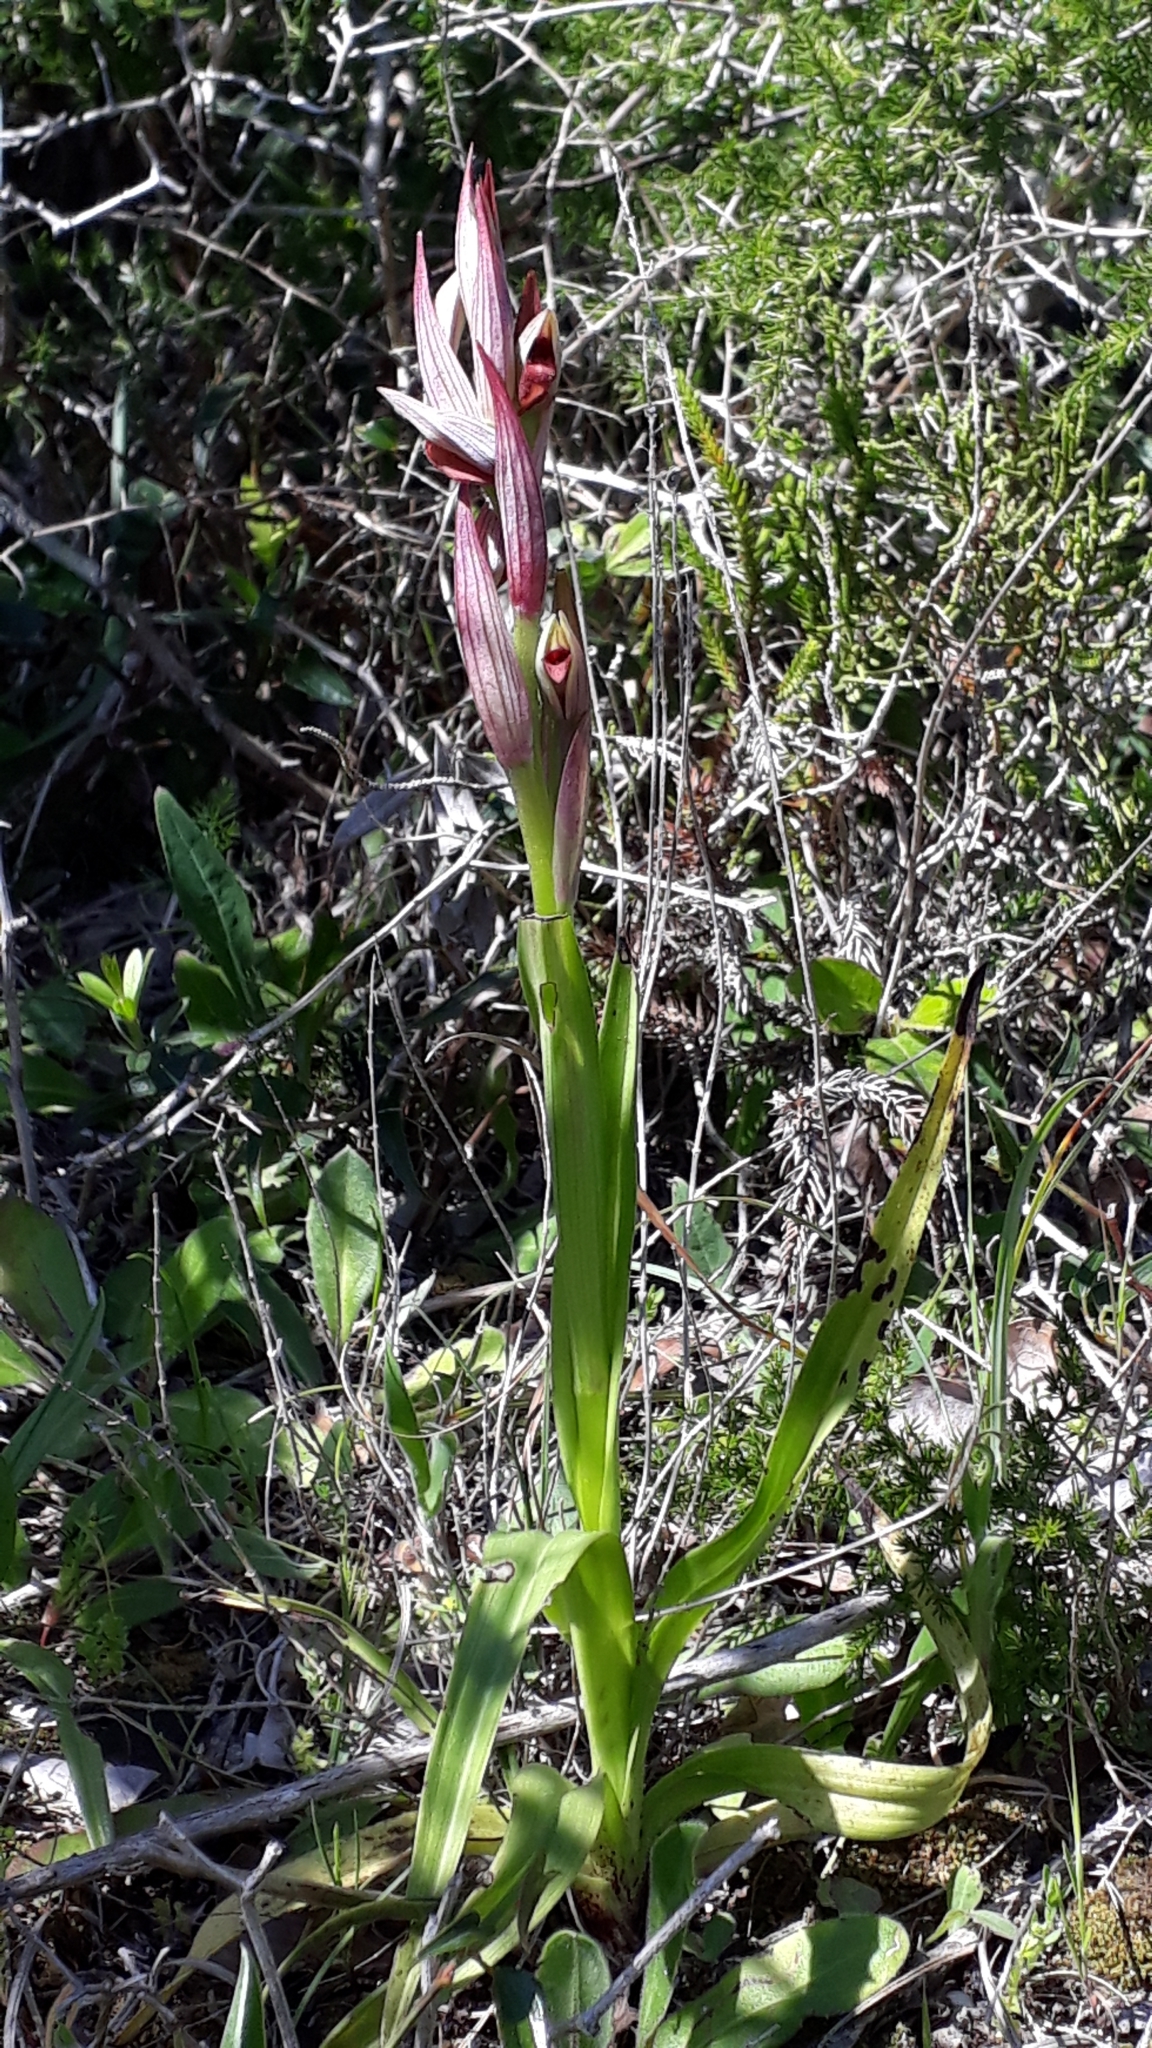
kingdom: Plantae
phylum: Tracheophyta
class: Liliopsida
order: Asparagales
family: Orchidaceae
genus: Serapias
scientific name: Serapias parviflora
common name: Small-flowered tongue-orchid
